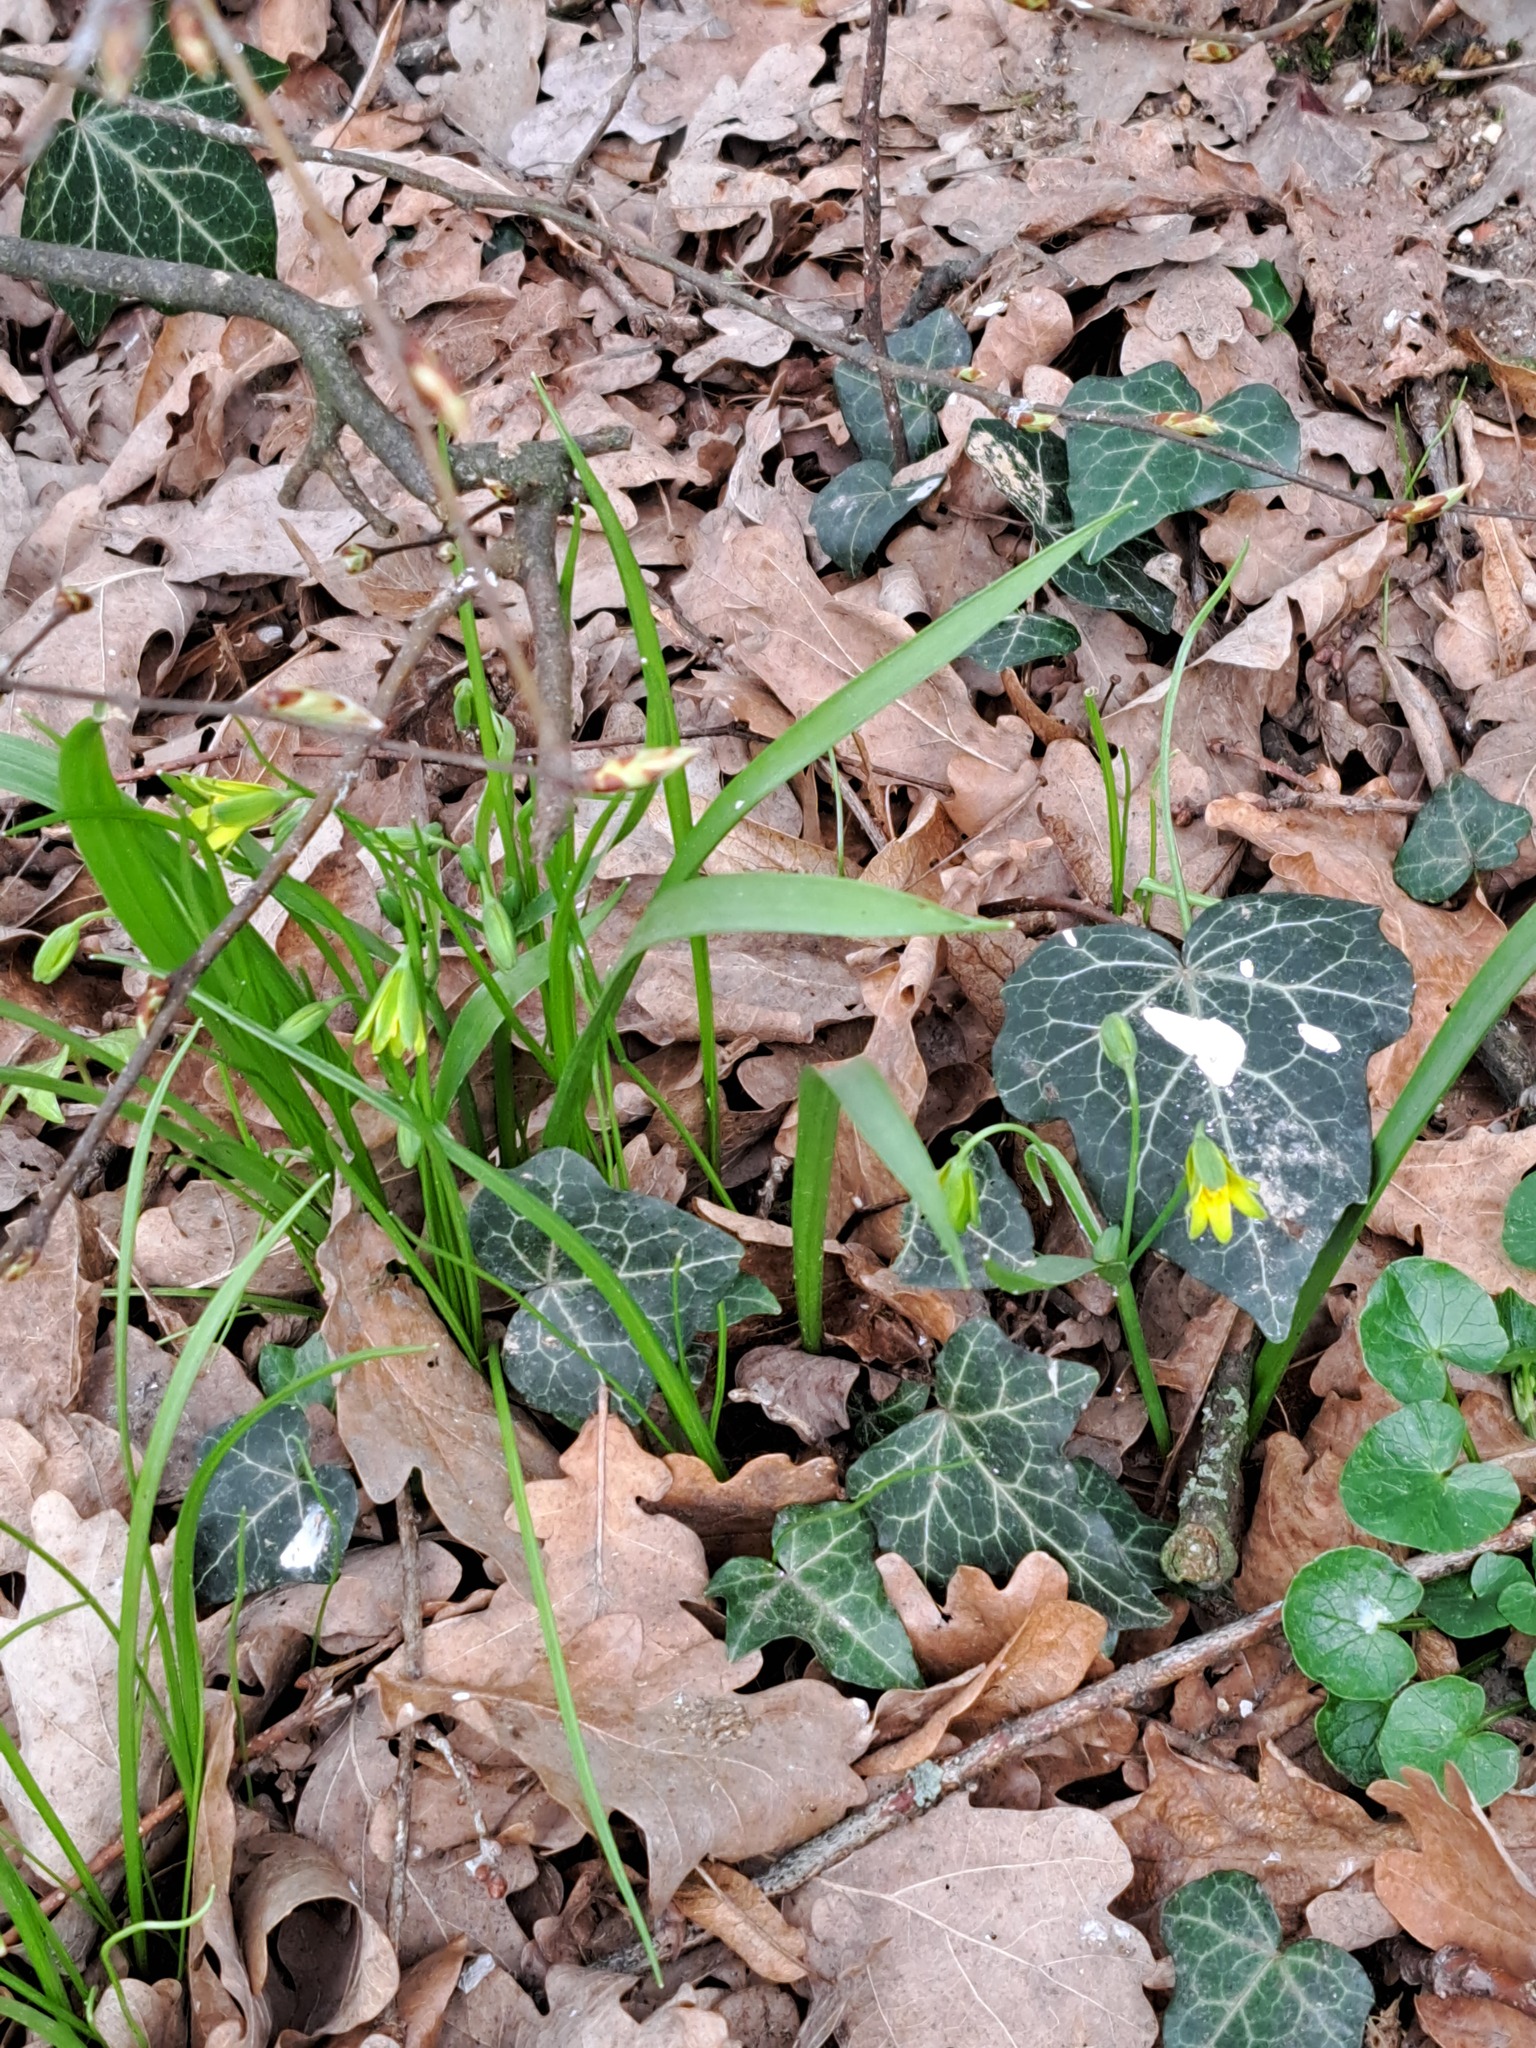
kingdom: Plantae
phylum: Tracheophyta
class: Liliopsida
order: Liliales
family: Liliaceae
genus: Gagea
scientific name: Gagea lutea
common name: Yellow star-of-bethlehem
